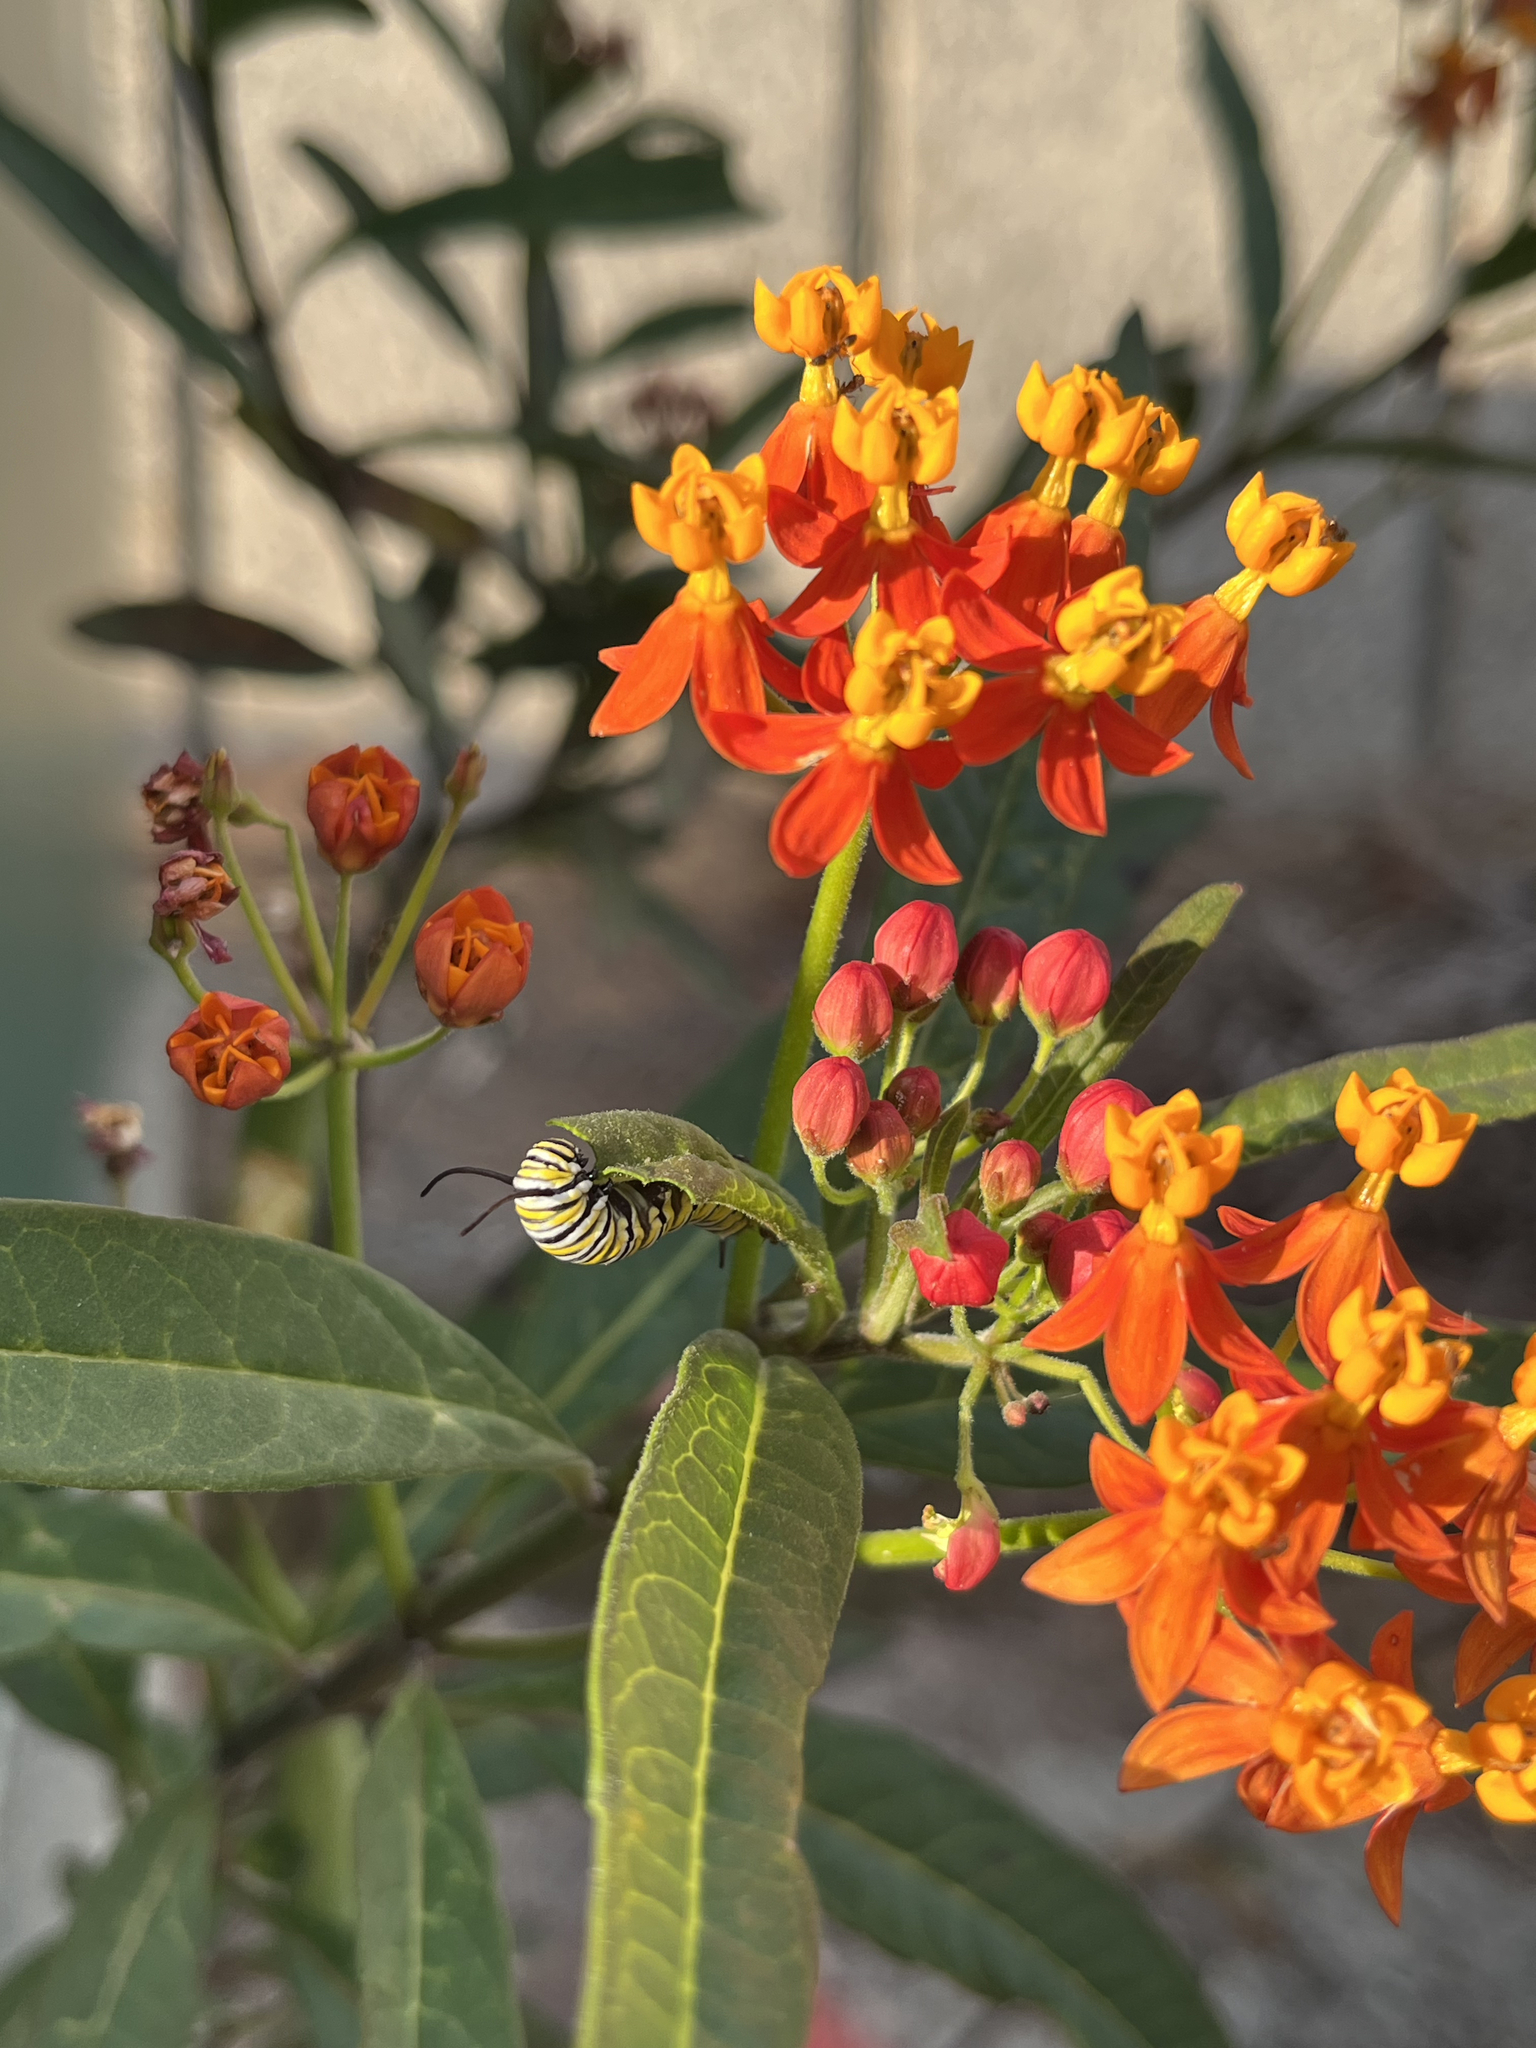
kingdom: Animalia
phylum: Arthropoda
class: Insecta
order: Lepidoptera
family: Nymphalidae
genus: Danaus
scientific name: Danaus plexippus
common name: Monarch
